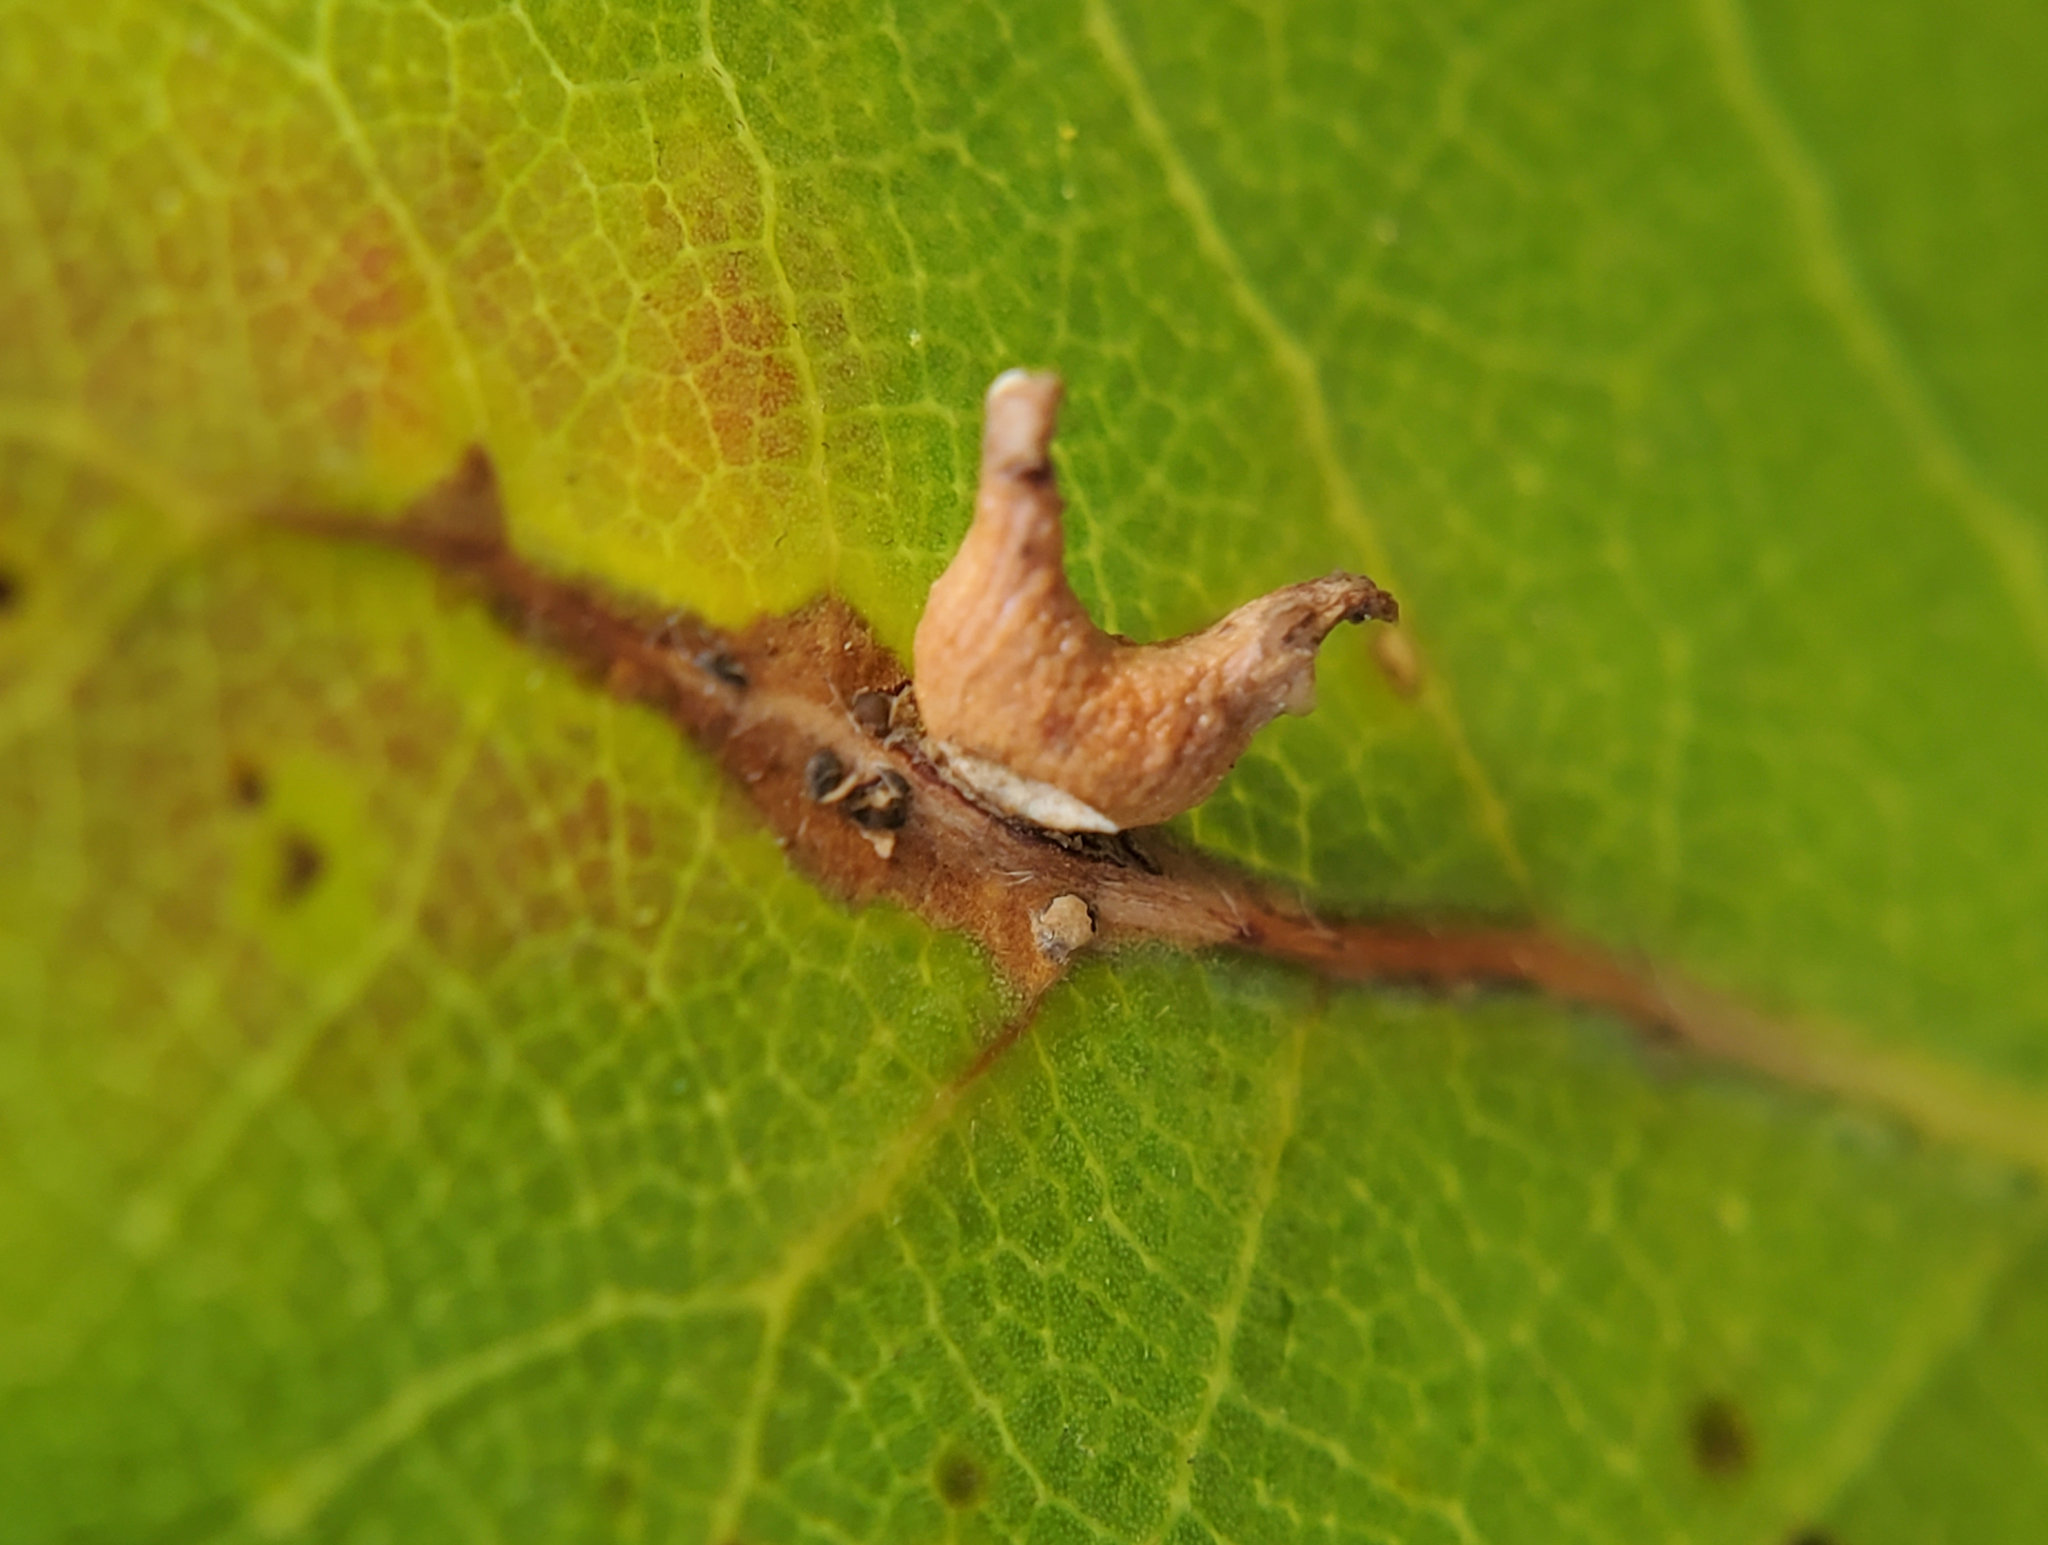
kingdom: Animalia
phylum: Arthropoda
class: Insecta
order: Hymenoptera
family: Cynipidae
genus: Dryocosmus
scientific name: Dryocosmus
